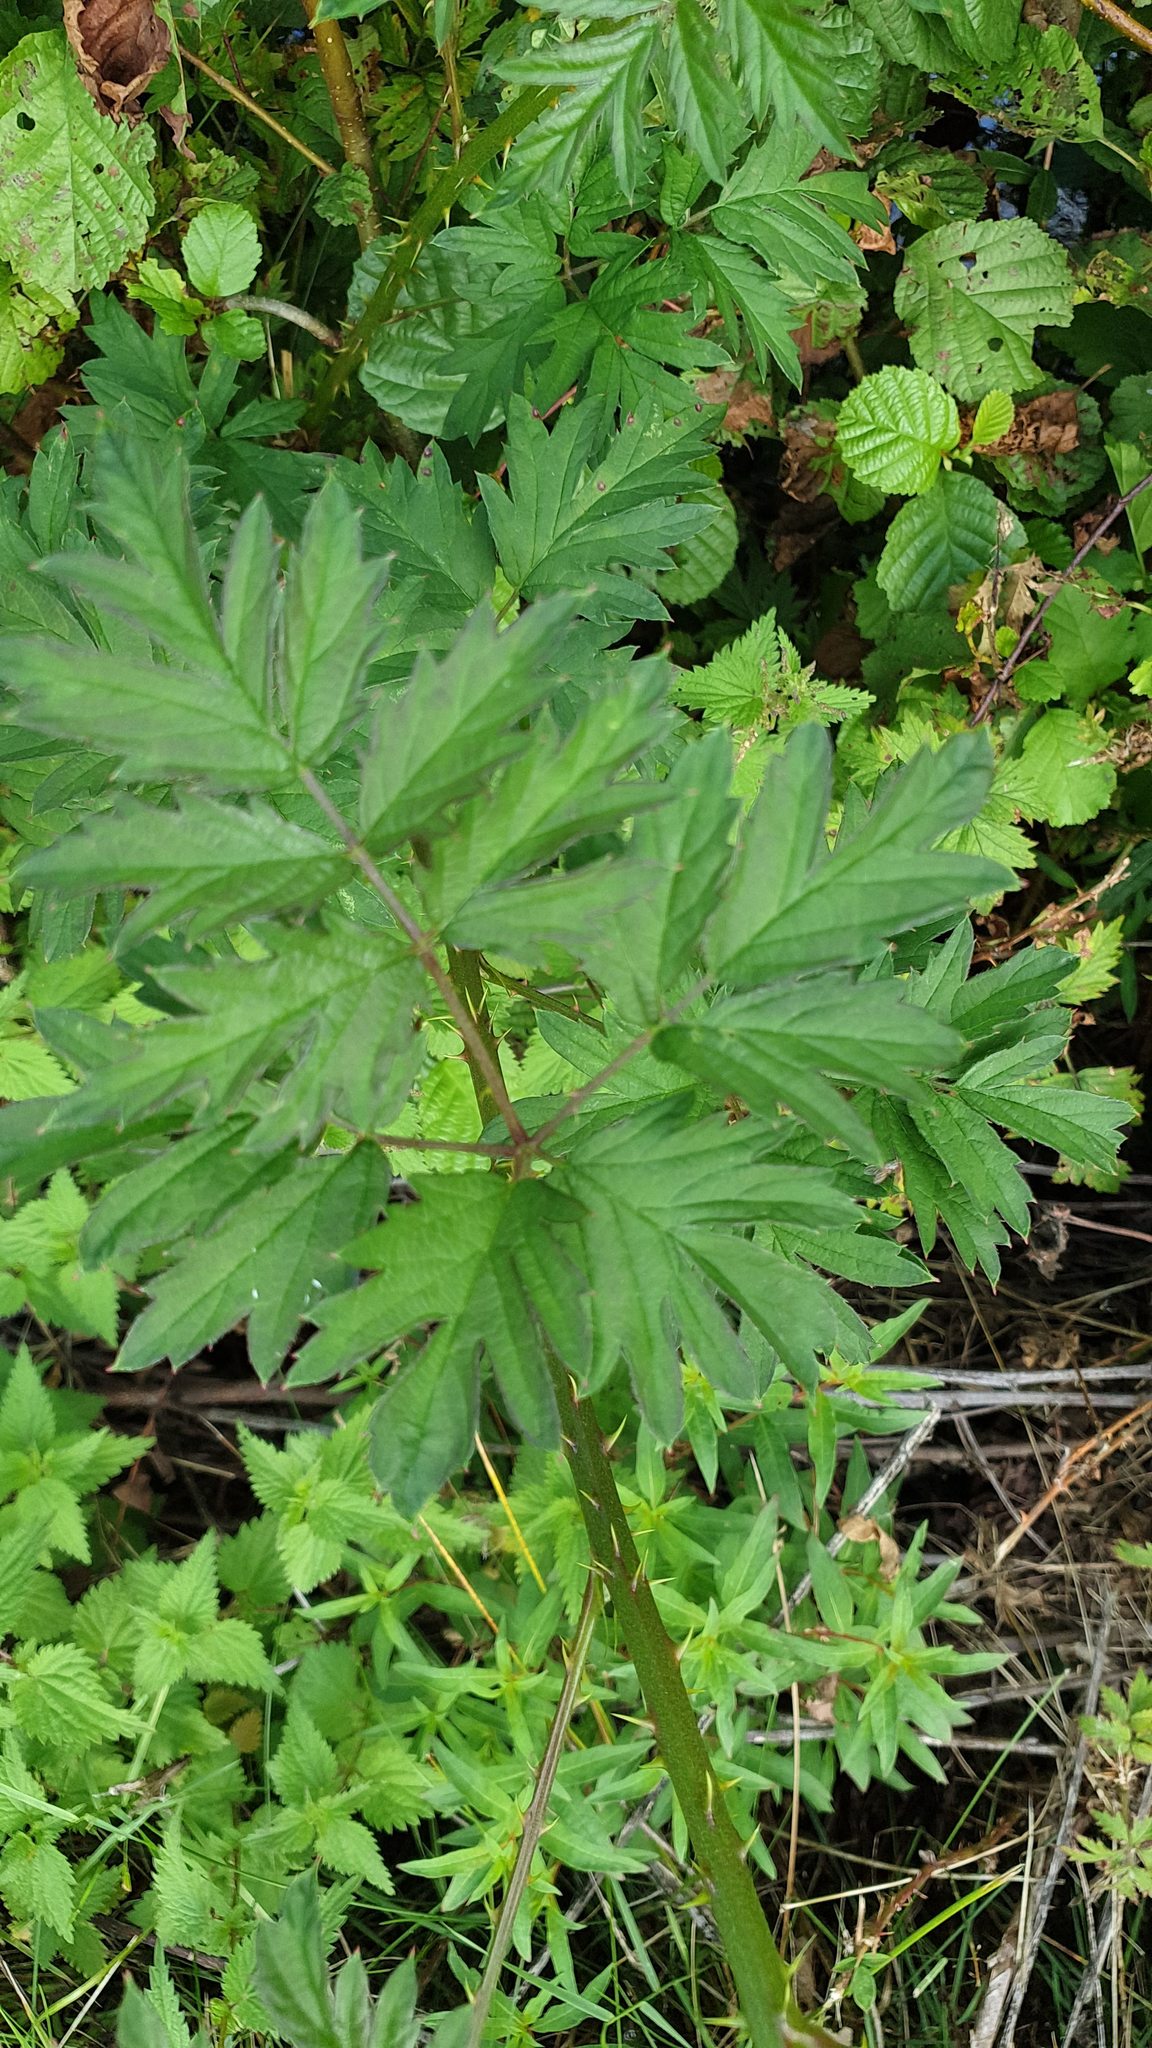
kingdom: Plantae
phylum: Tracheophyta
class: Magnoliopsida
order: Rosales
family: Rosaceae
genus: Rubus
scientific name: Rubus laciniatus
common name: Evergreen blackberry
